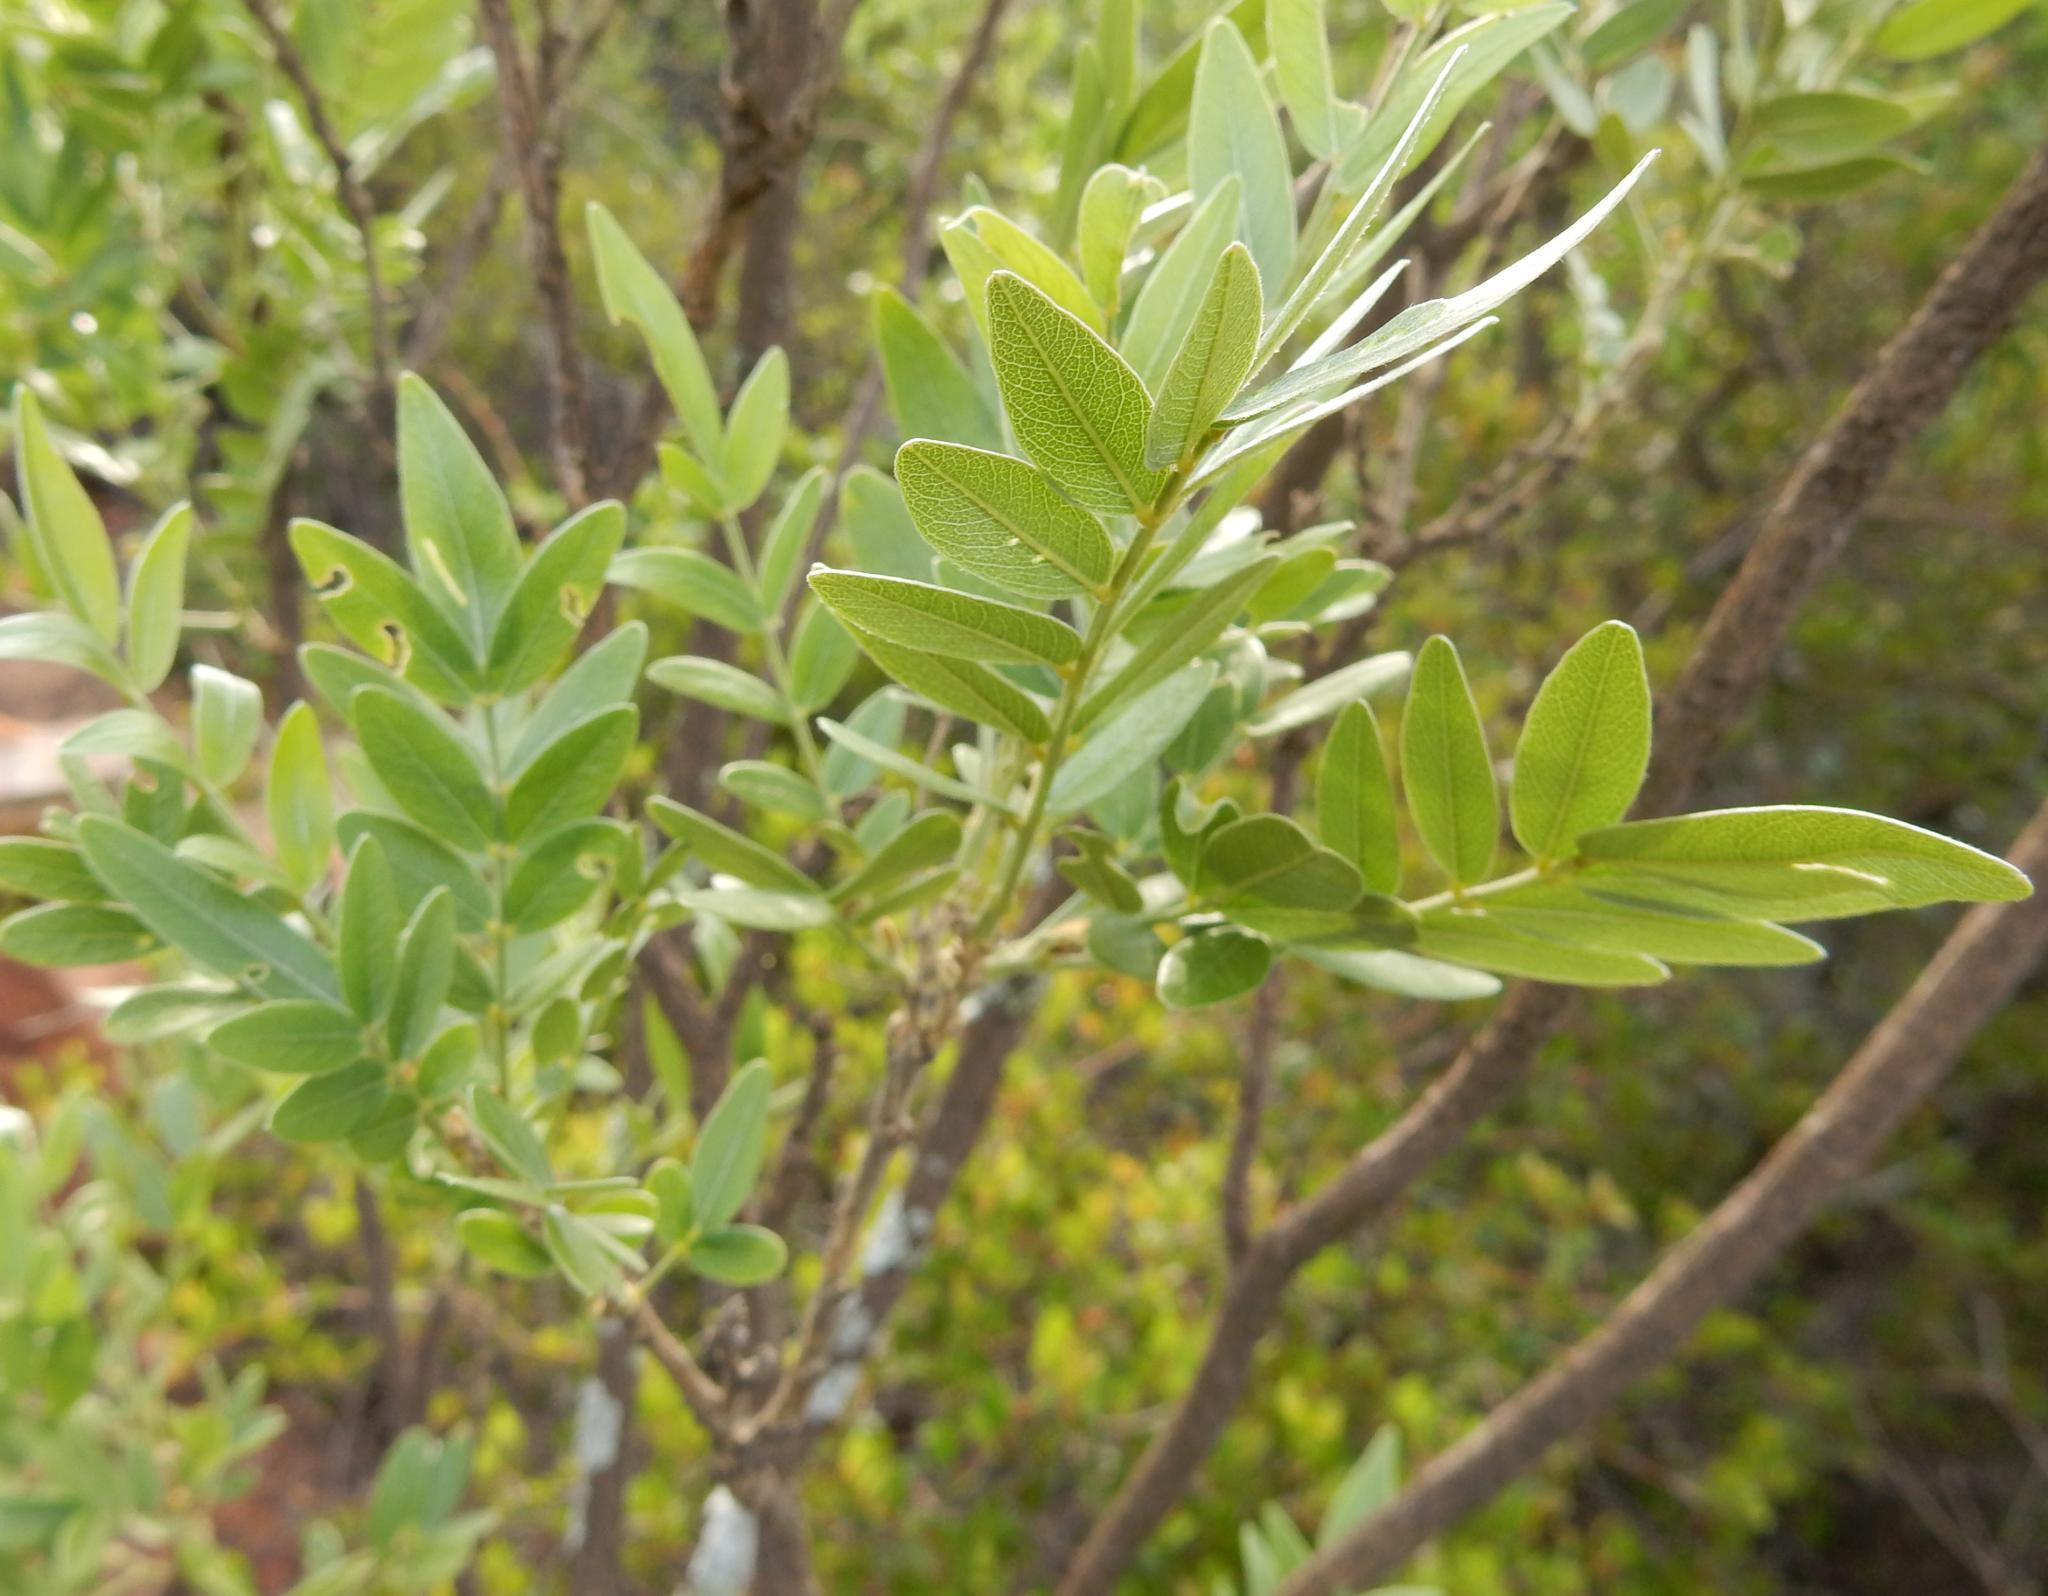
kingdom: Plantae
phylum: Tracheophyta
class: Magnoliopsida
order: Fabales
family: Fabaceae
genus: Mundulea
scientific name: Mundulea sericea
